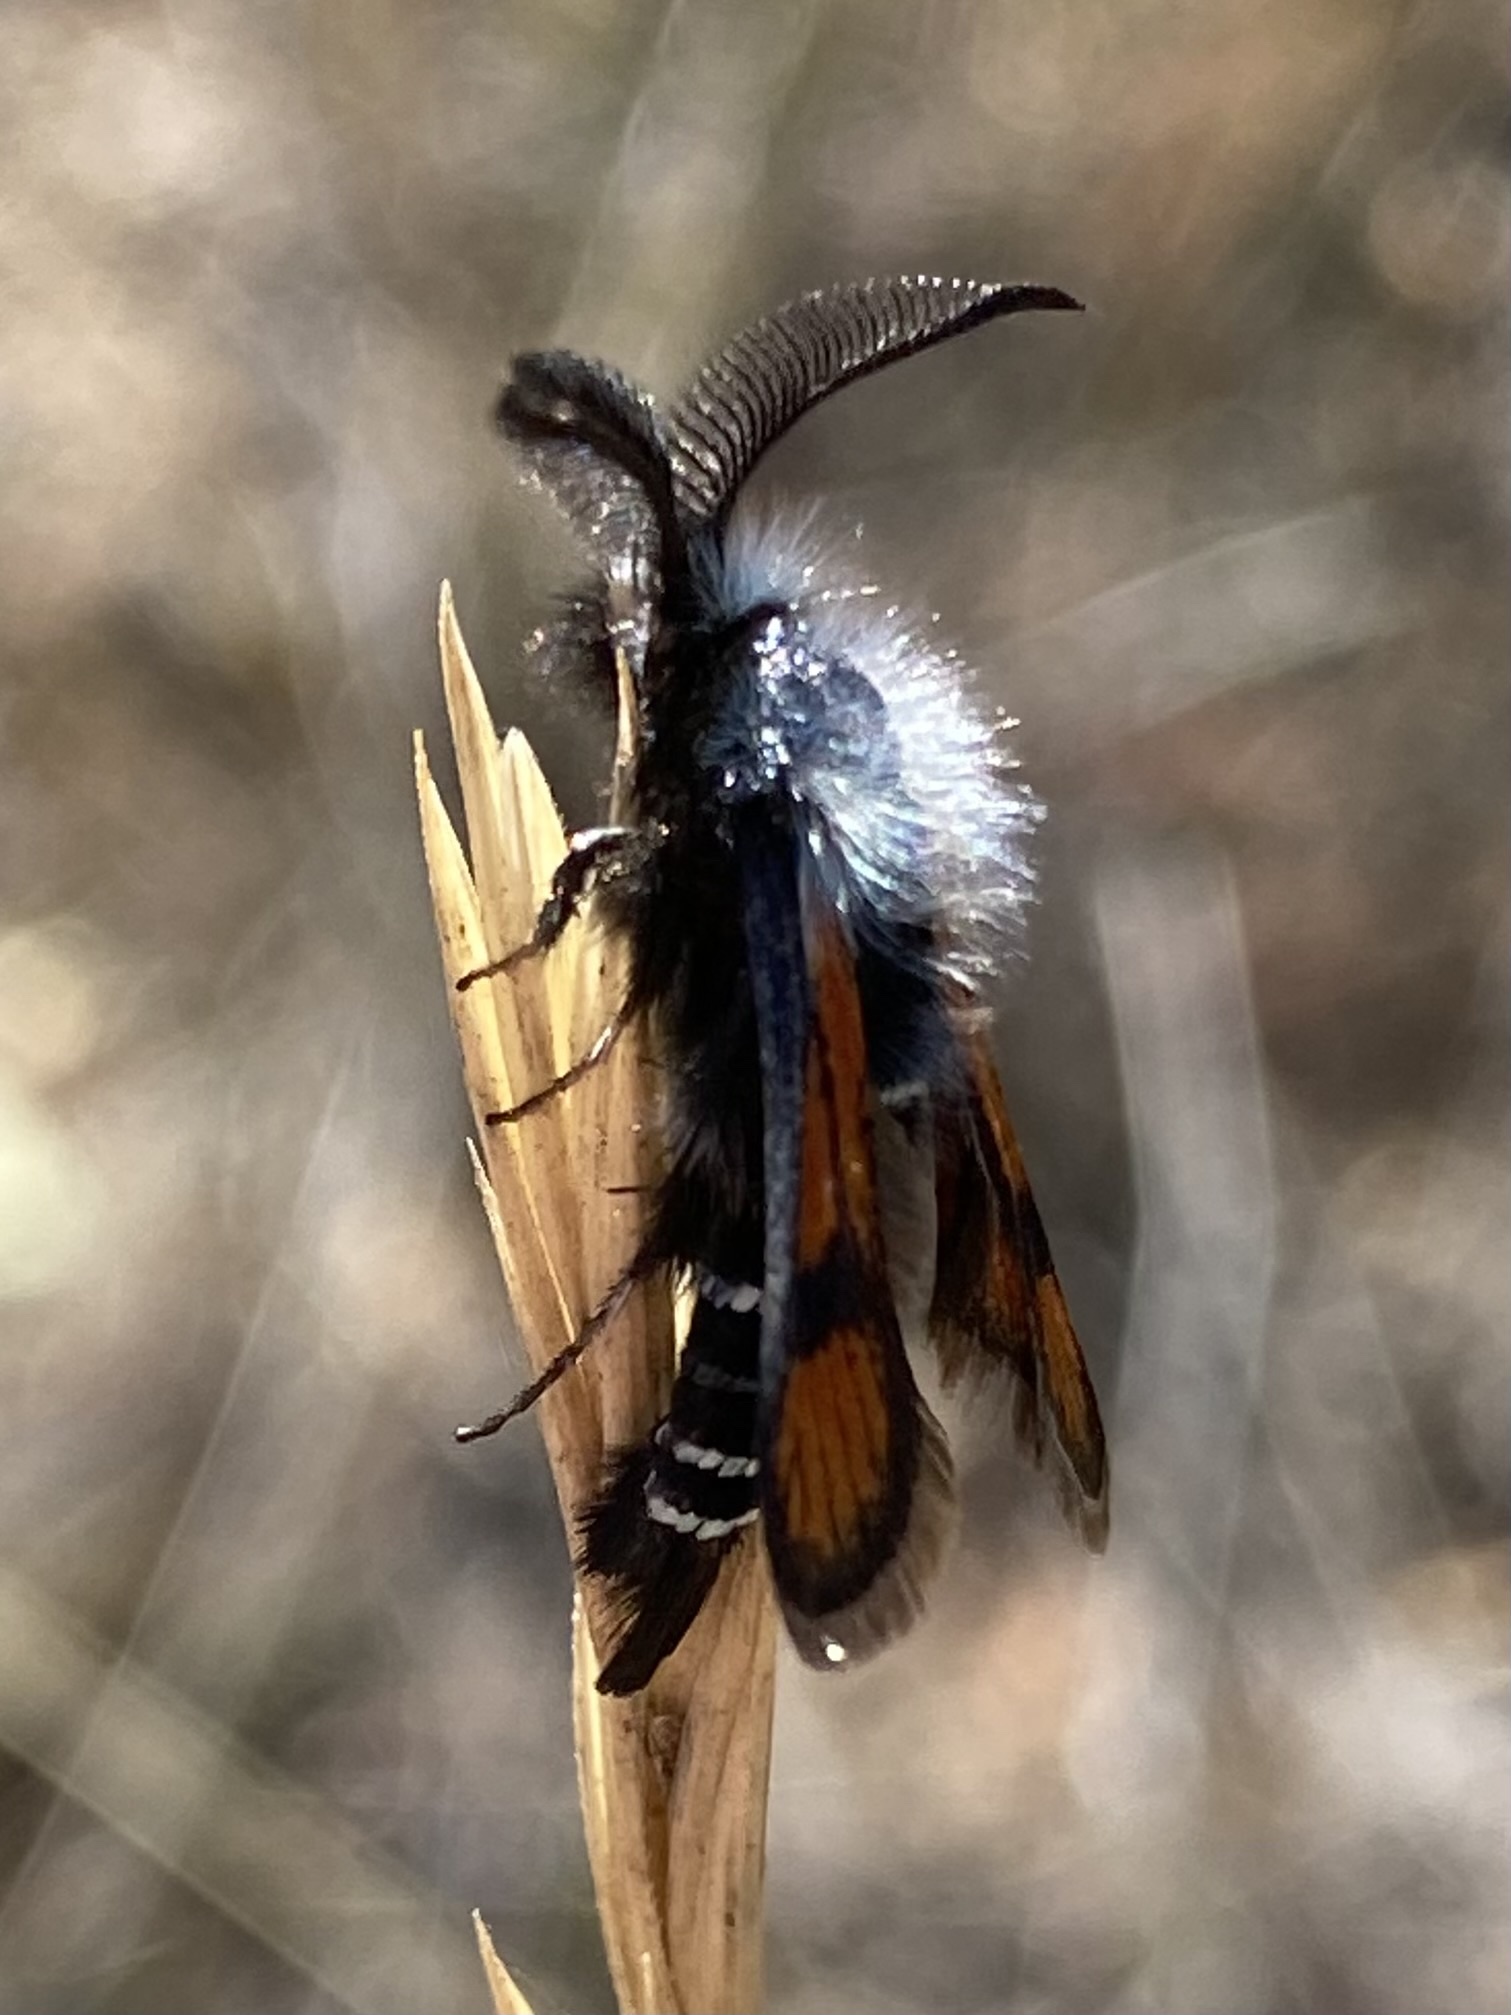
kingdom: Animalia
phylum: Arthropoda
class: Insecta
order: Lepidoptera
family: Sesiidae
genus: Euhagena
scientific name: Euhagena nebraskae
